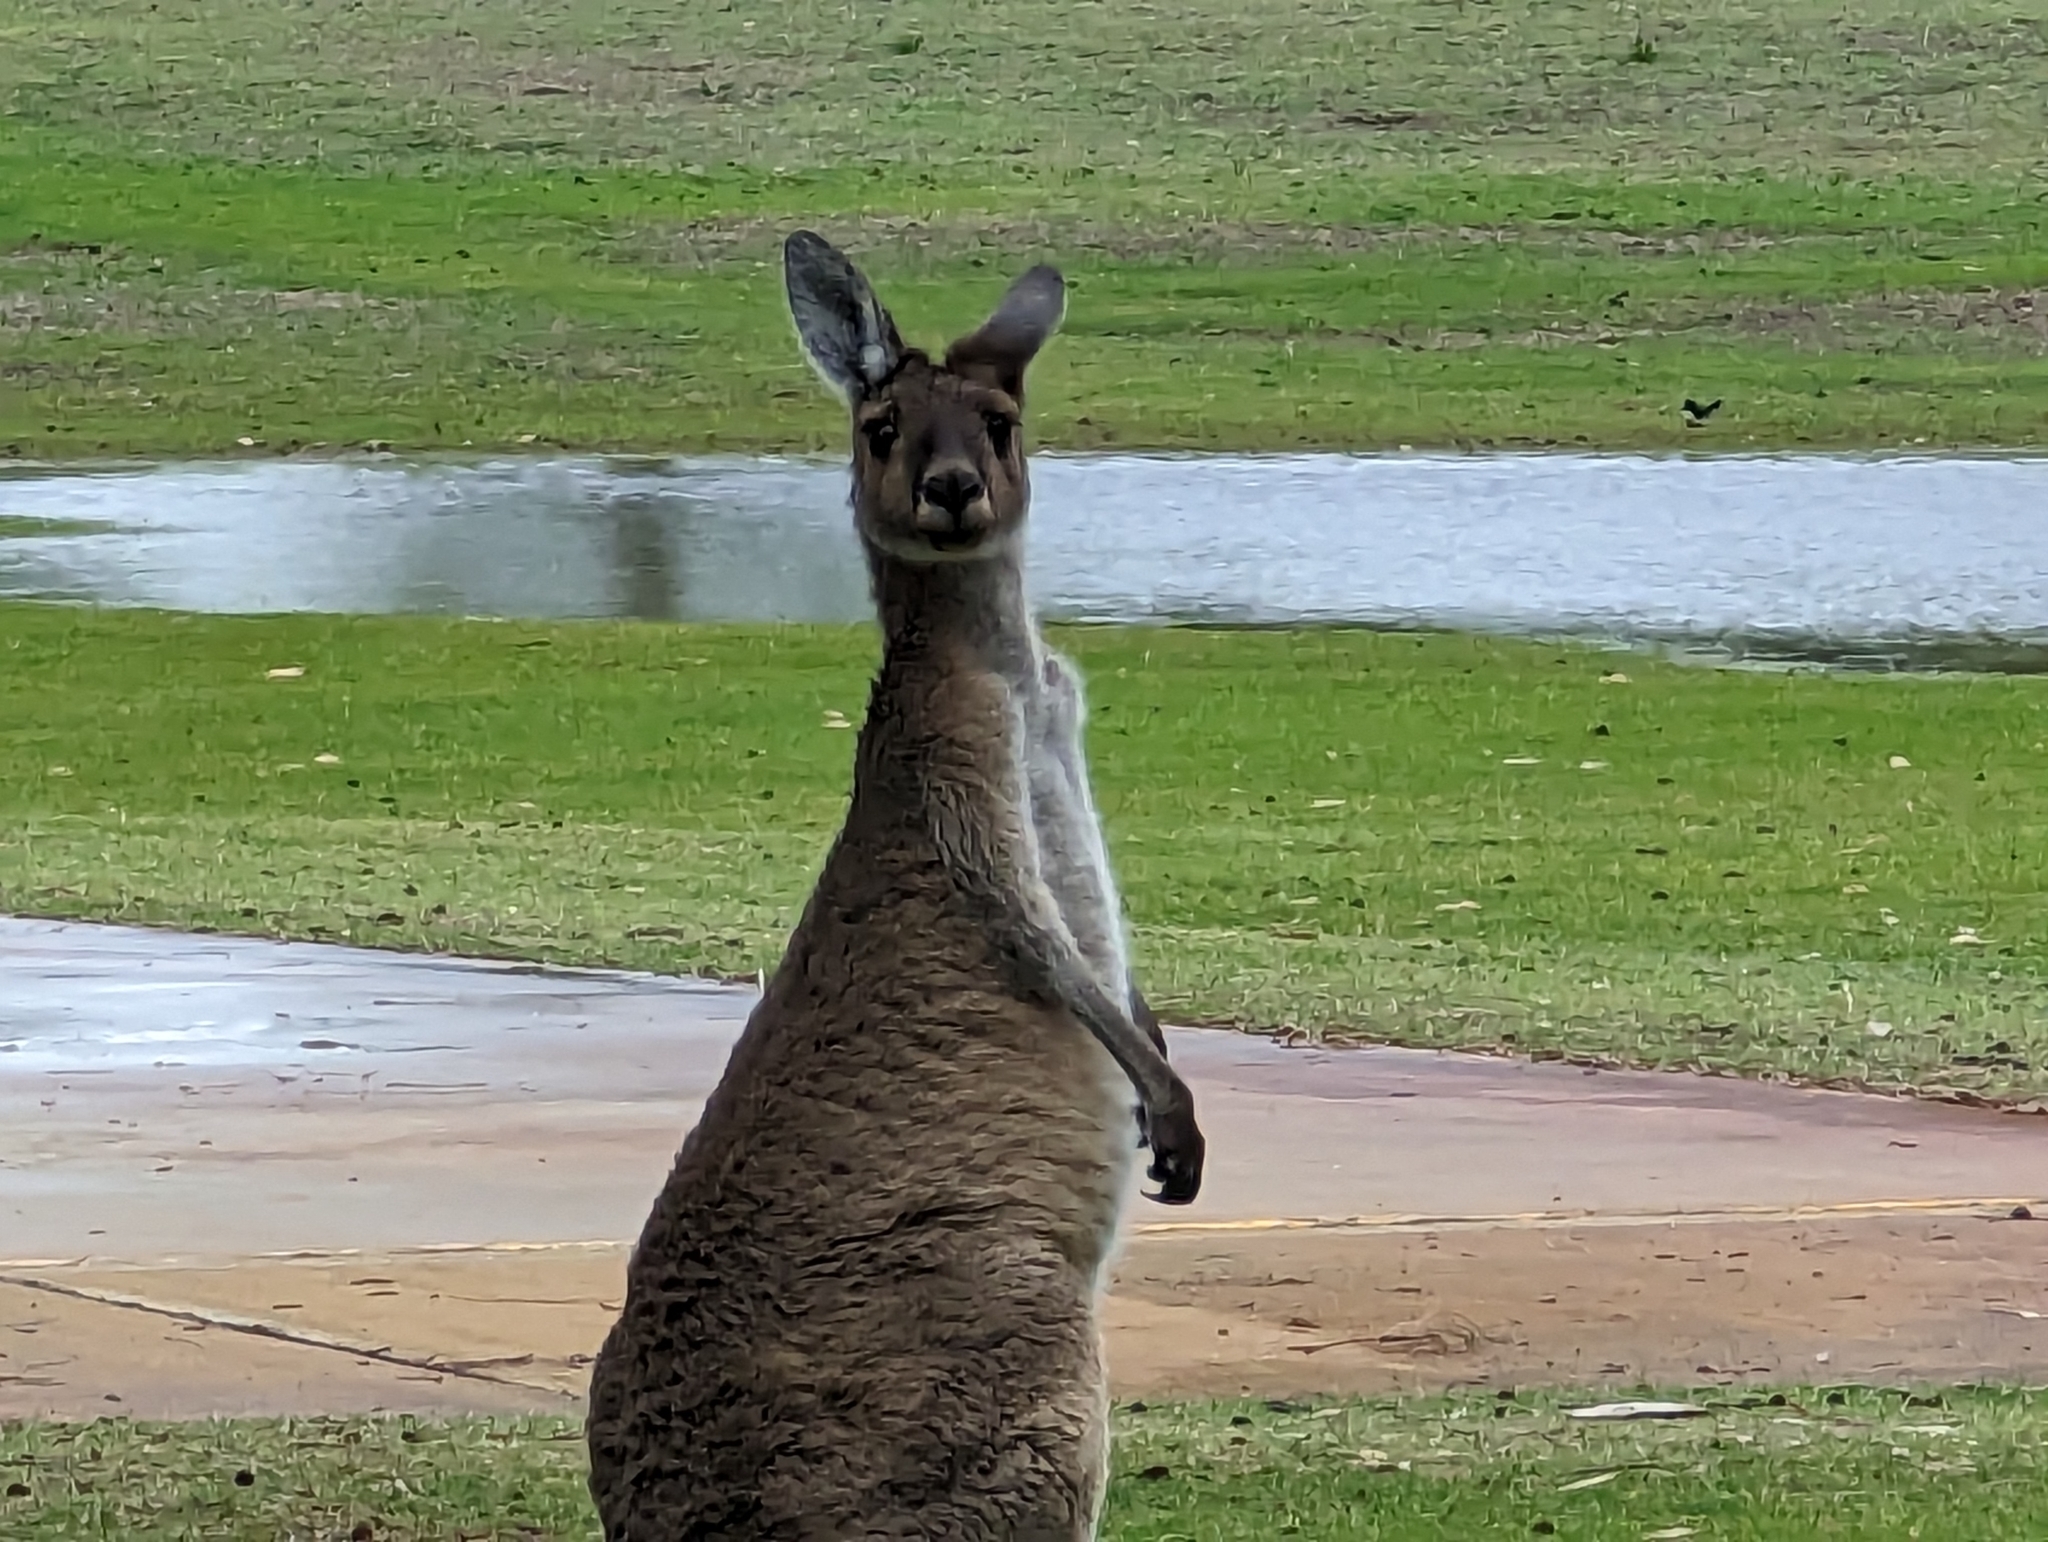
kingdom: Animalia
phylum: Chordata
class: Mammalia
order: Diprotodontia
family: Macropodidae
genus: Macropus
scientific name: Macropus fuliginosus
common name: Western grey kangaroo
